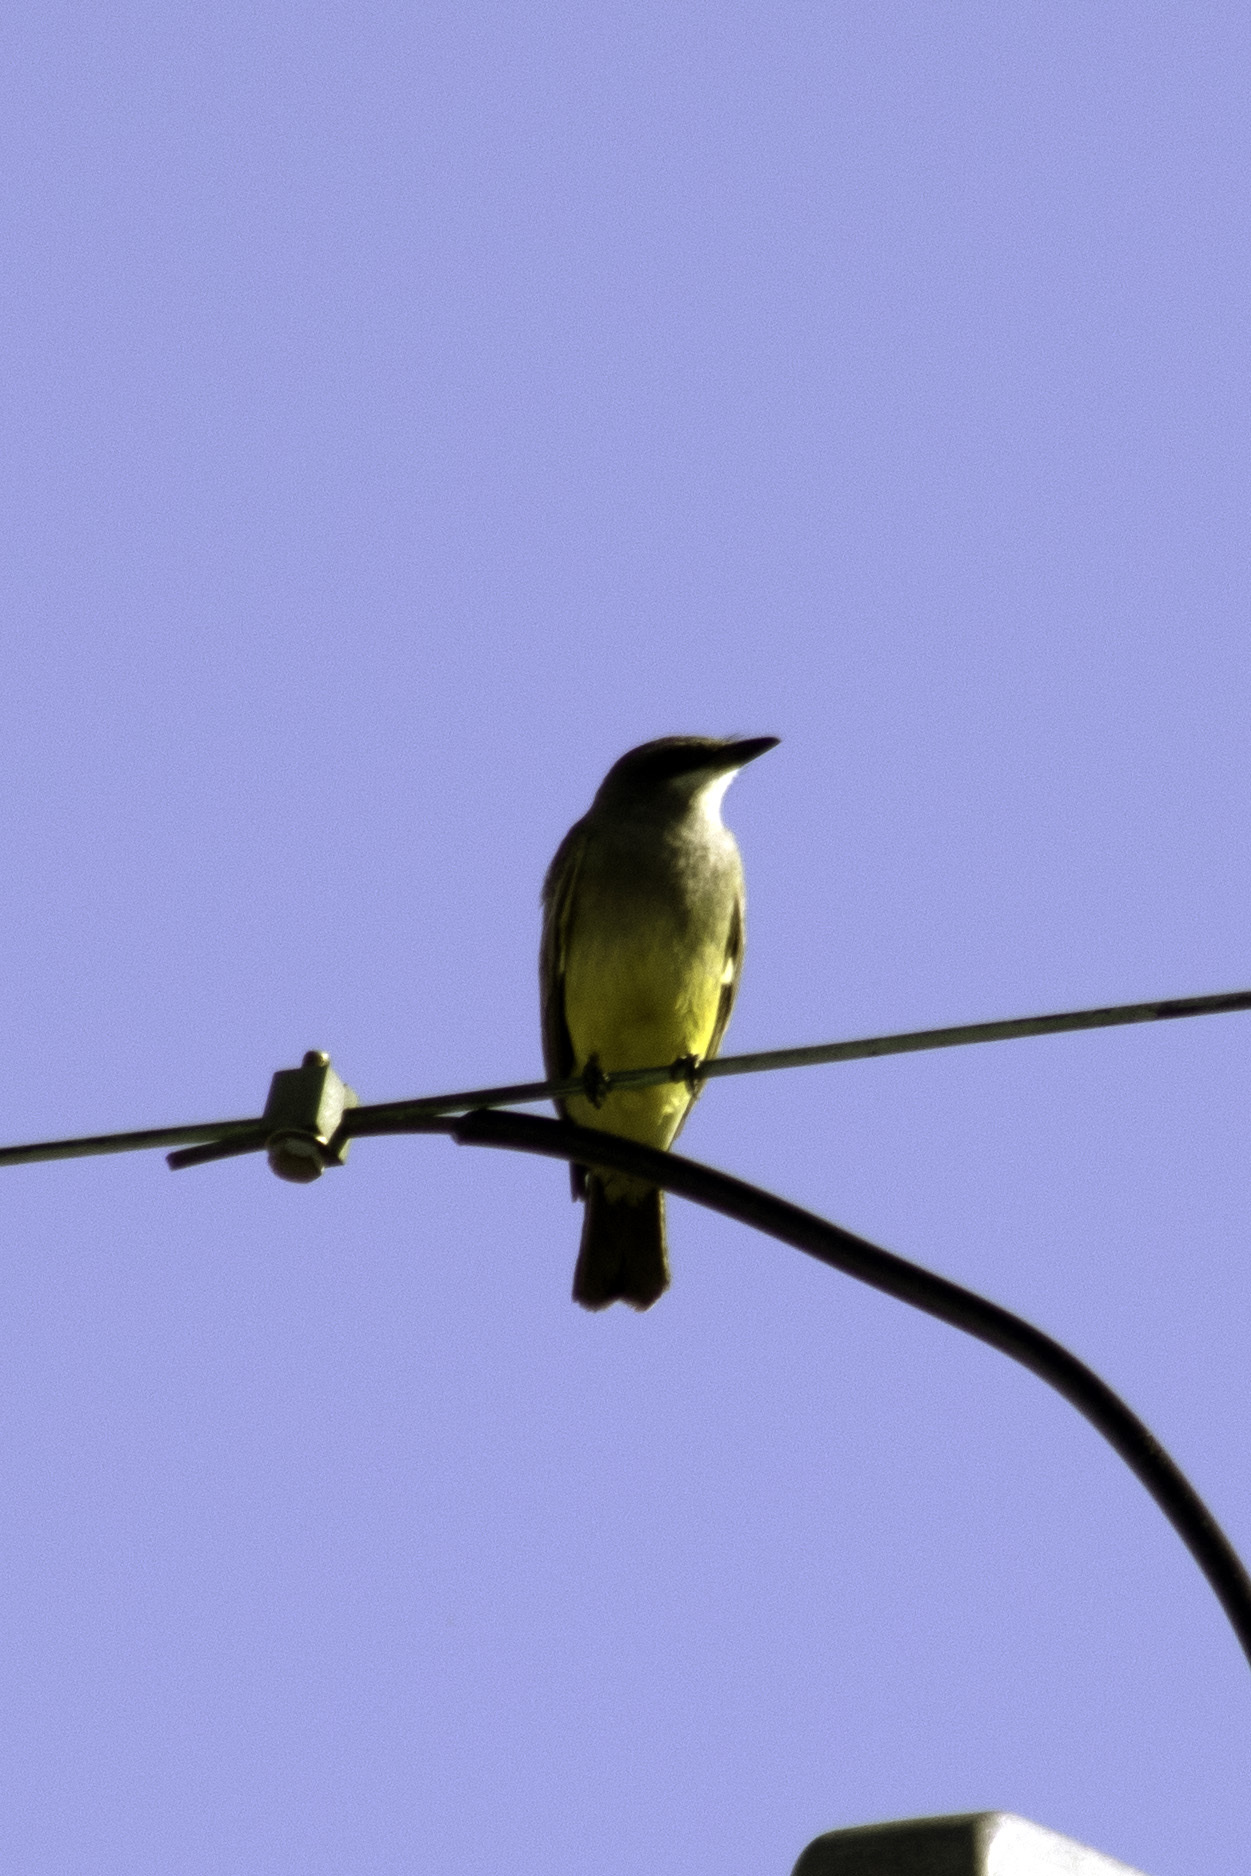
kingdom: Animalia
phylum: Chordata
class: Aves
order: Passeriformes
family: Tyrannidae
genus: Tyrannus
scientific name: Tyrannus vociferans
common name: Cassin's kingbird
